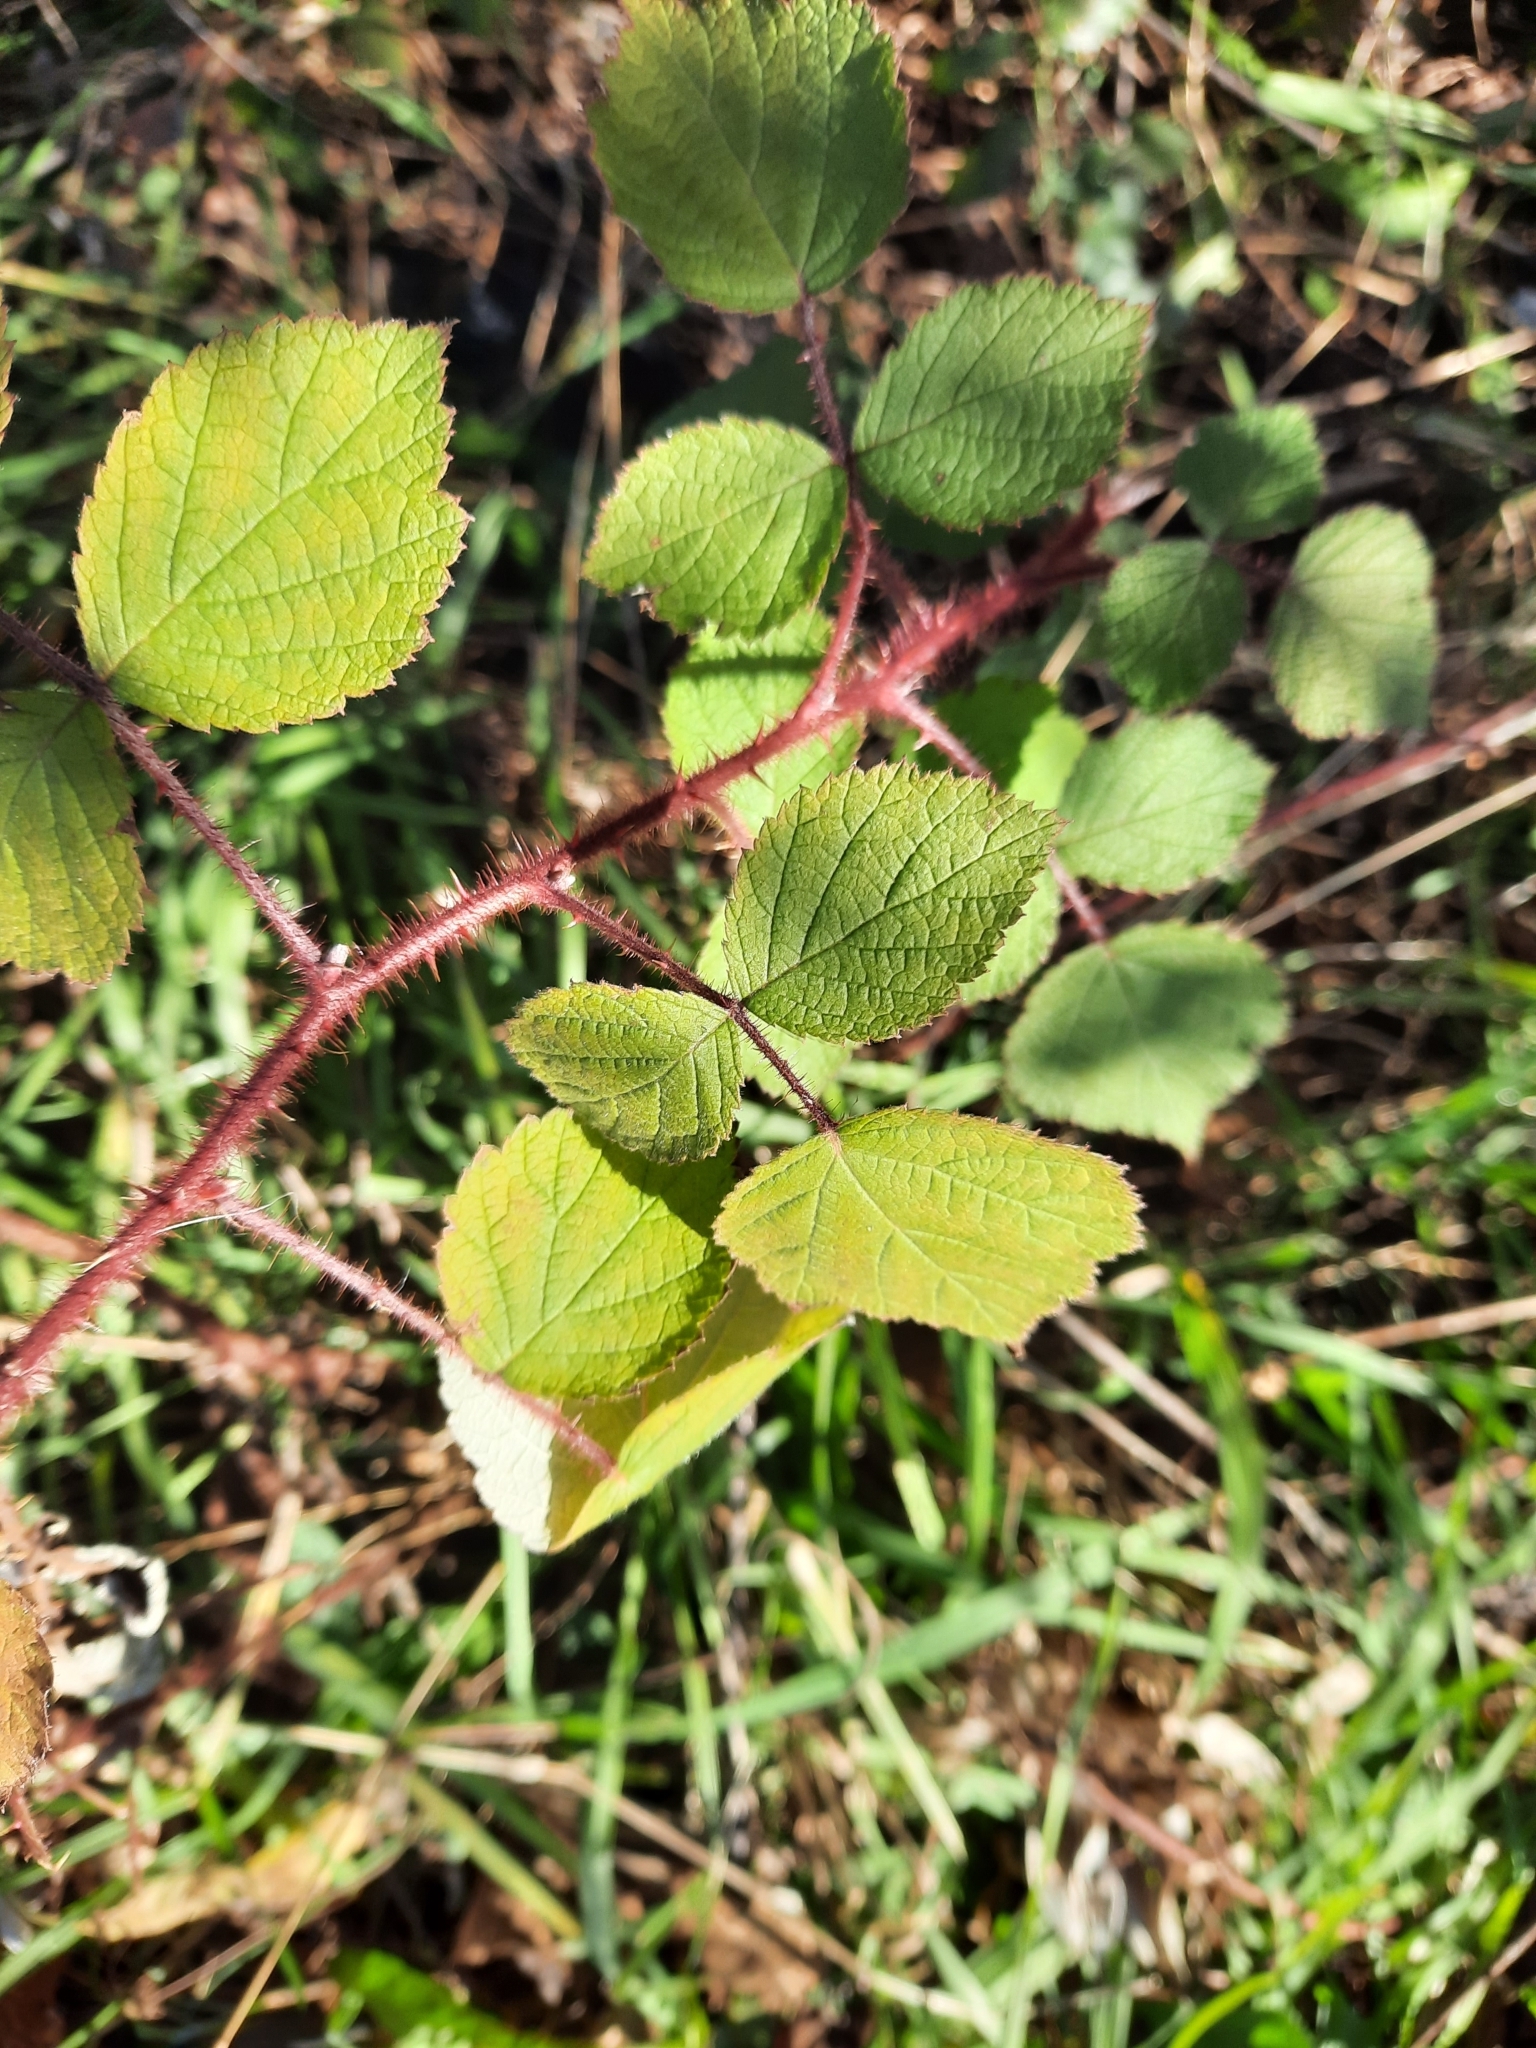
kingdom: Plantae
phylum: Tracheophyta
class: Magnoliopsida
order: Rosales
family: Rosaceae
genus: Rubus
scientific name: Rubus phoenicolasius
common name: Japanese wineberry
